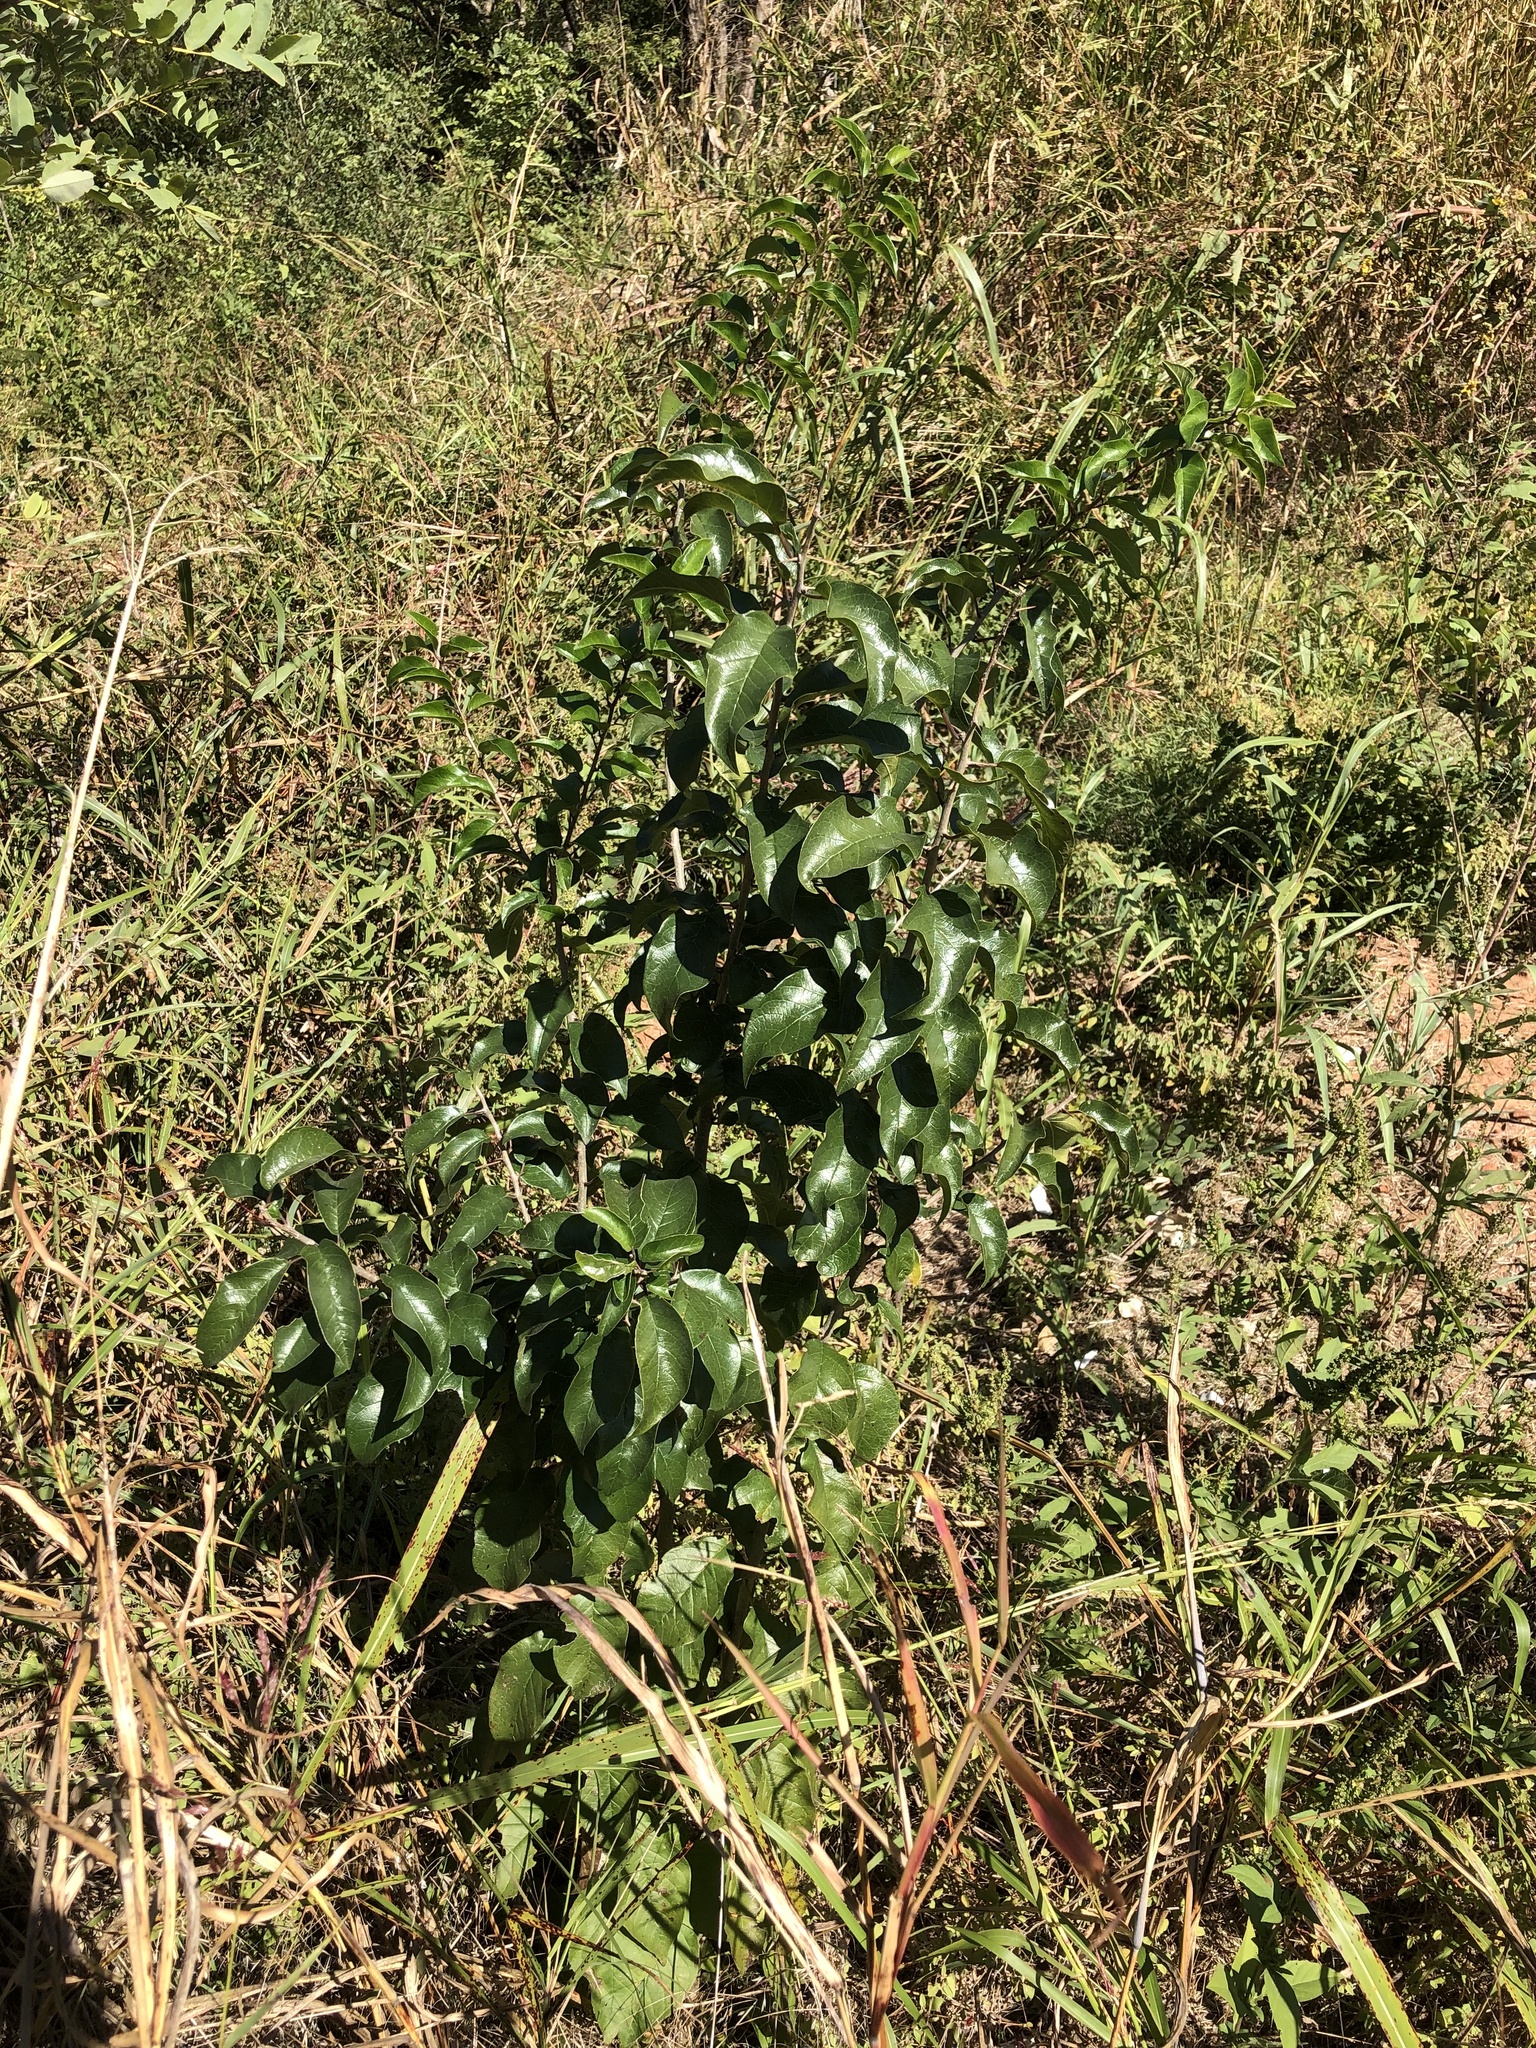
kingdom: Plantae
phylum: Tracheophyta
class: Magnoliopsida
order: Rosales
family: Rosaceae
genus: Pyrus
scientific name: Pyrus calleryana
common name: Callery pear
